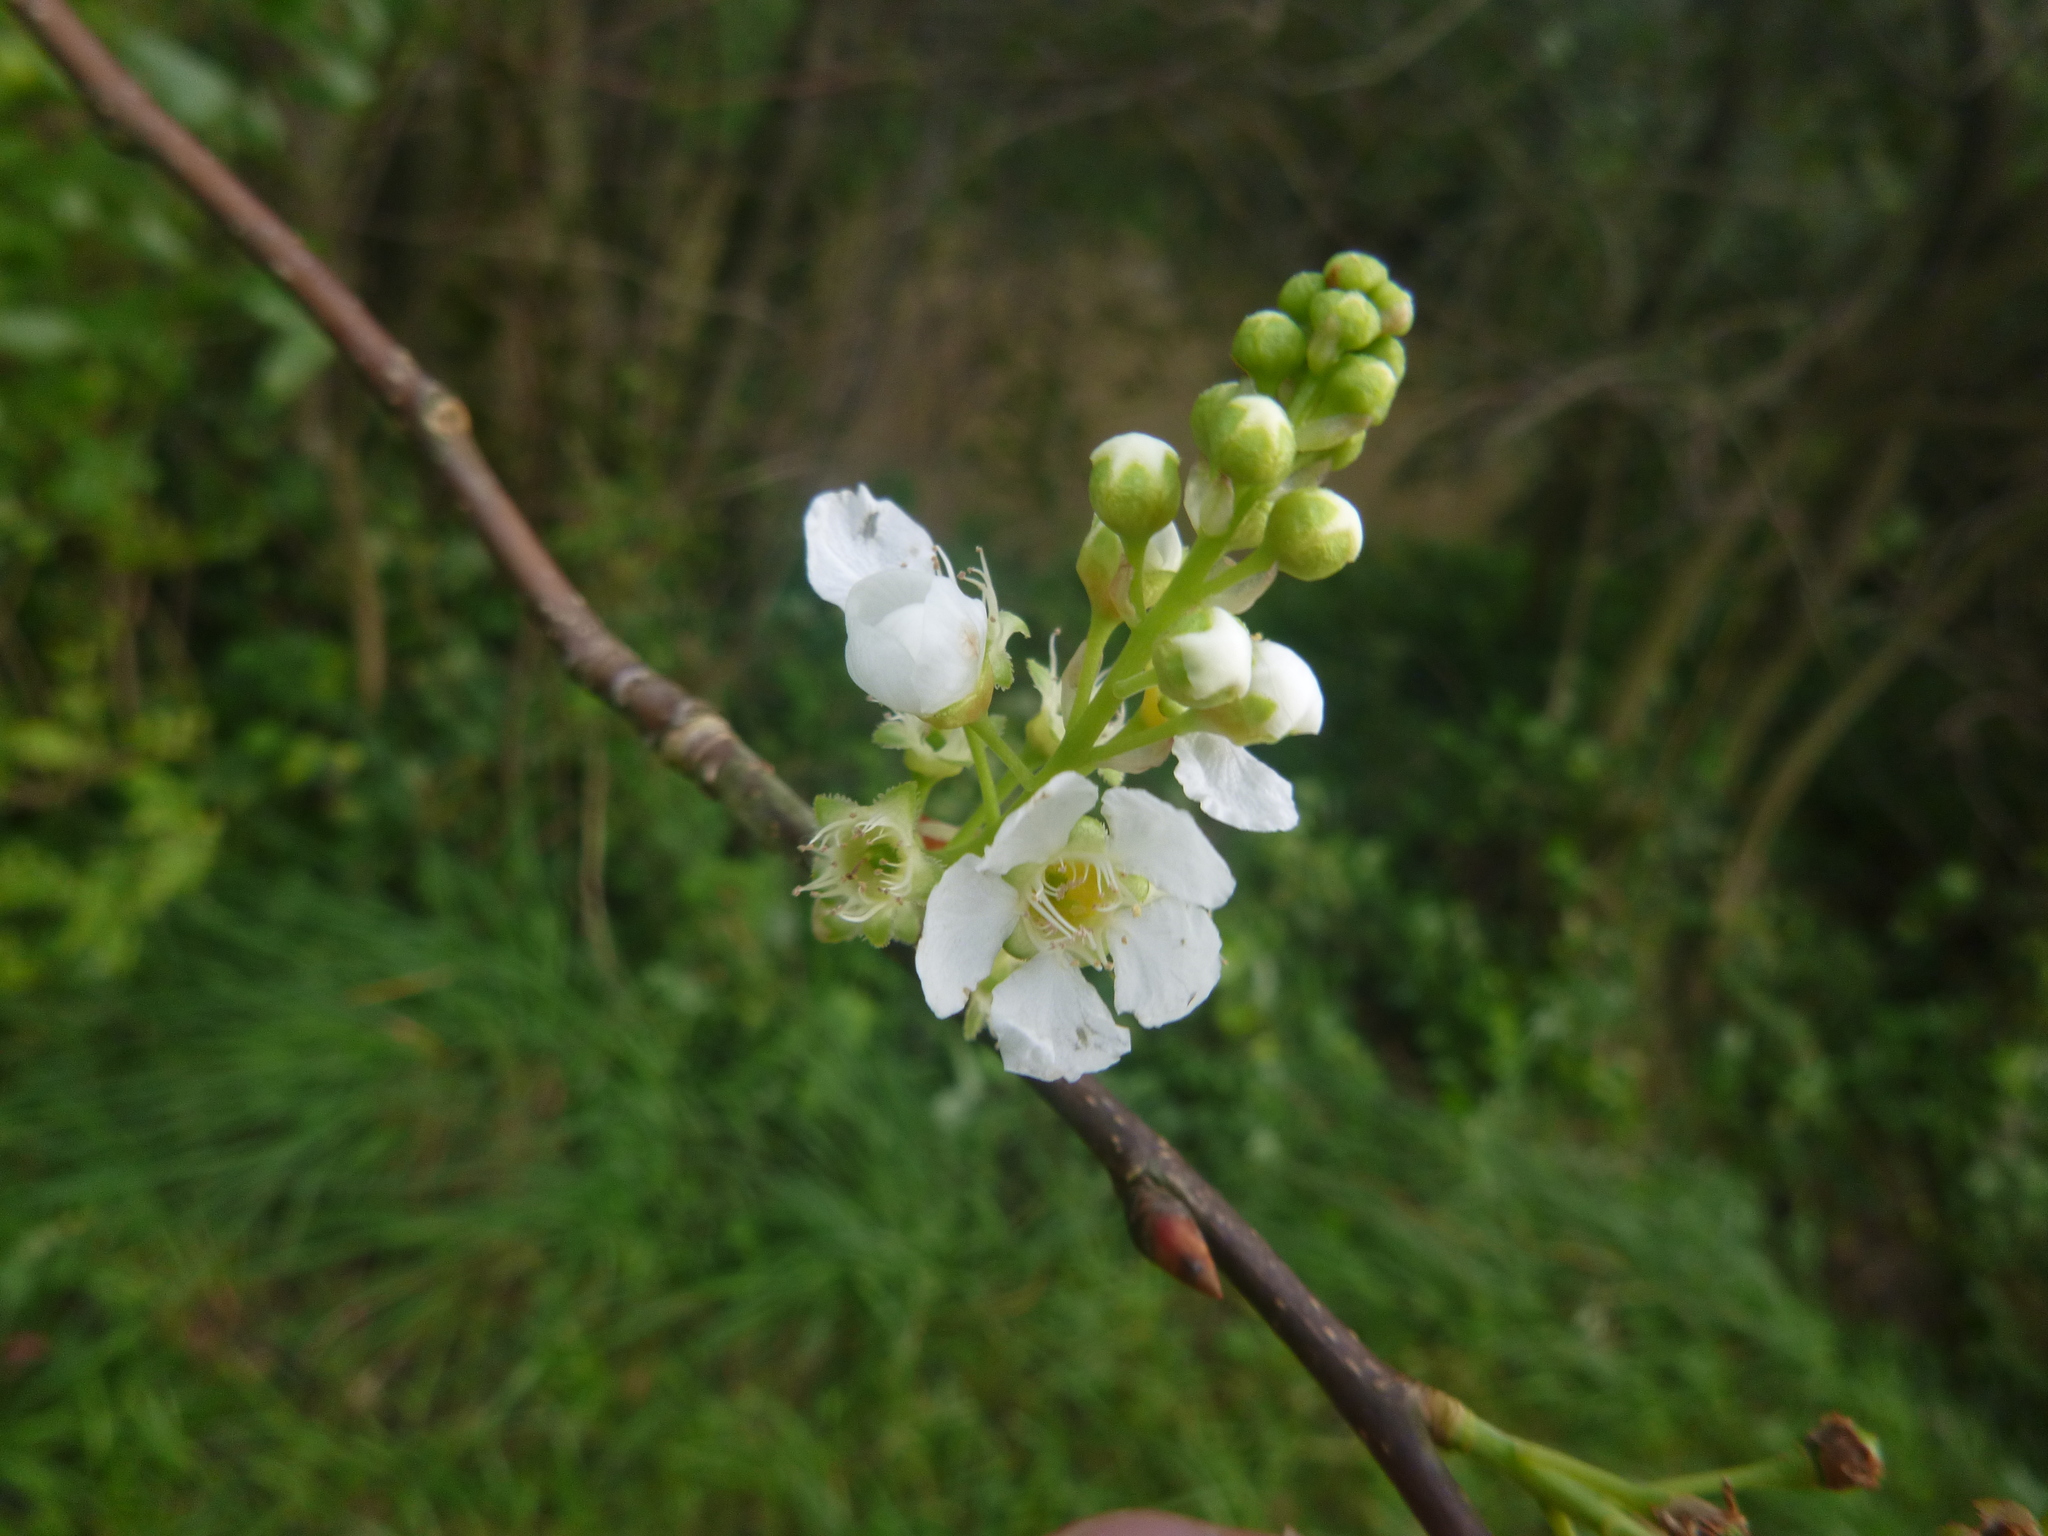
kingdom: Plantae
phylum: Tracheophyta
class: Magnoliopsida
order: Rosales
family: Rosaceae
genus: Prunus
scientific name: Prunus padus
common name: Bird cherry
